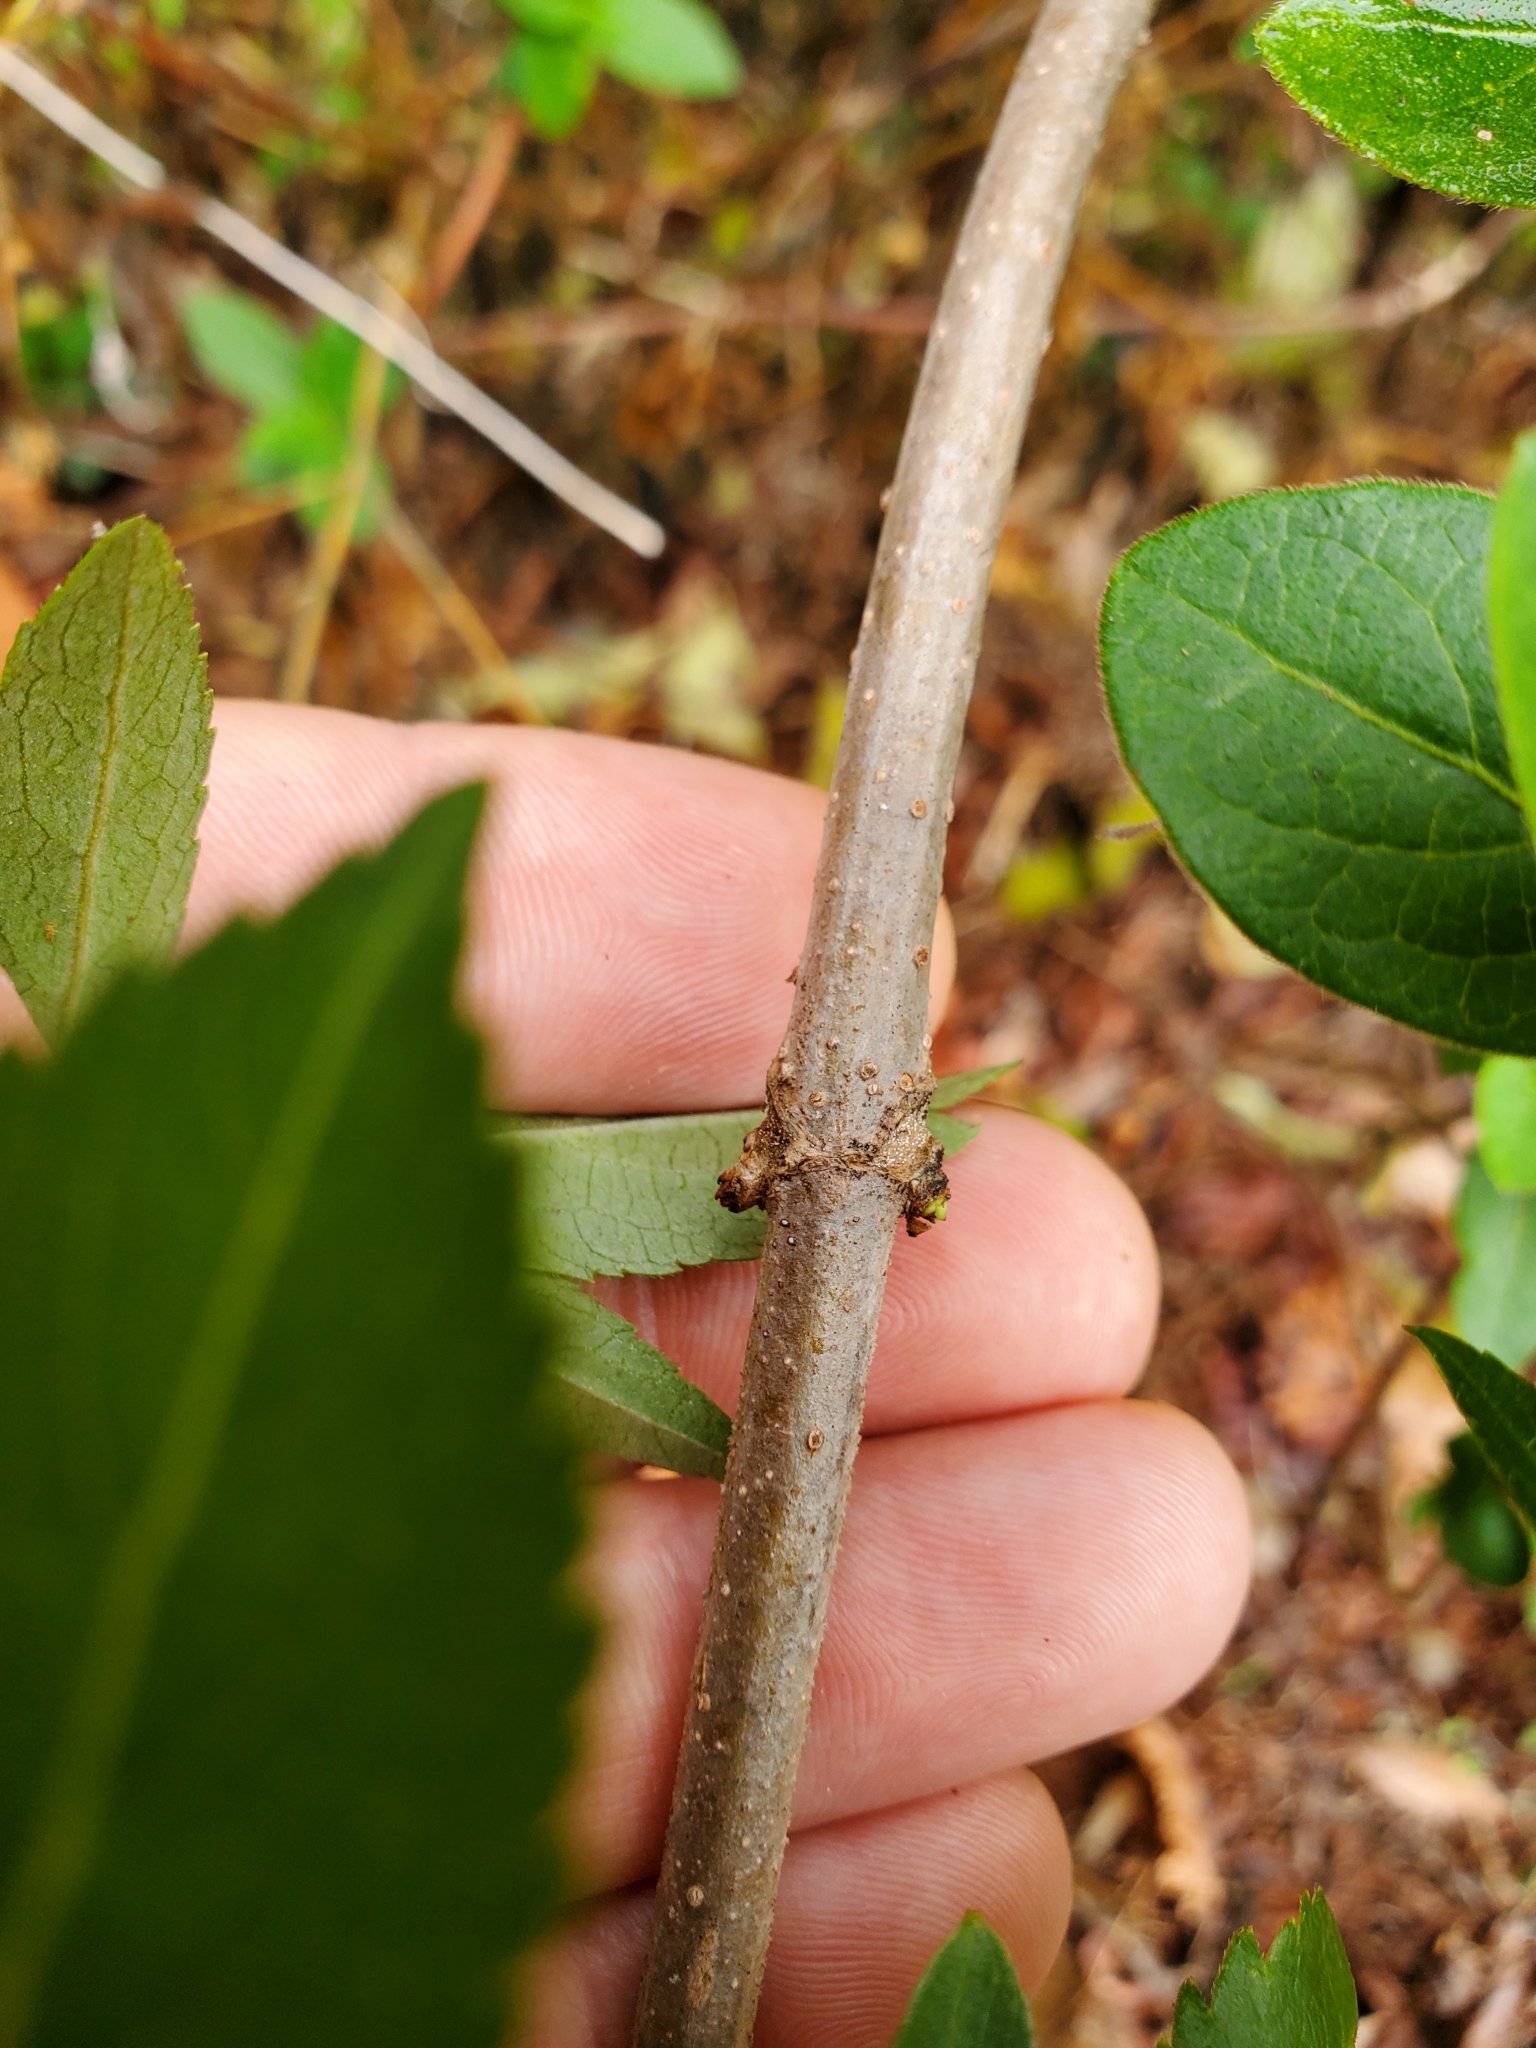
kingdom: Plantae
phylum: Tracheophyta
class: Magnoliopsida
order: Dipsacales
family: Viburnaceae
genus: Sambucus
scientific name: Sambucus canadensis
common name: American elder
